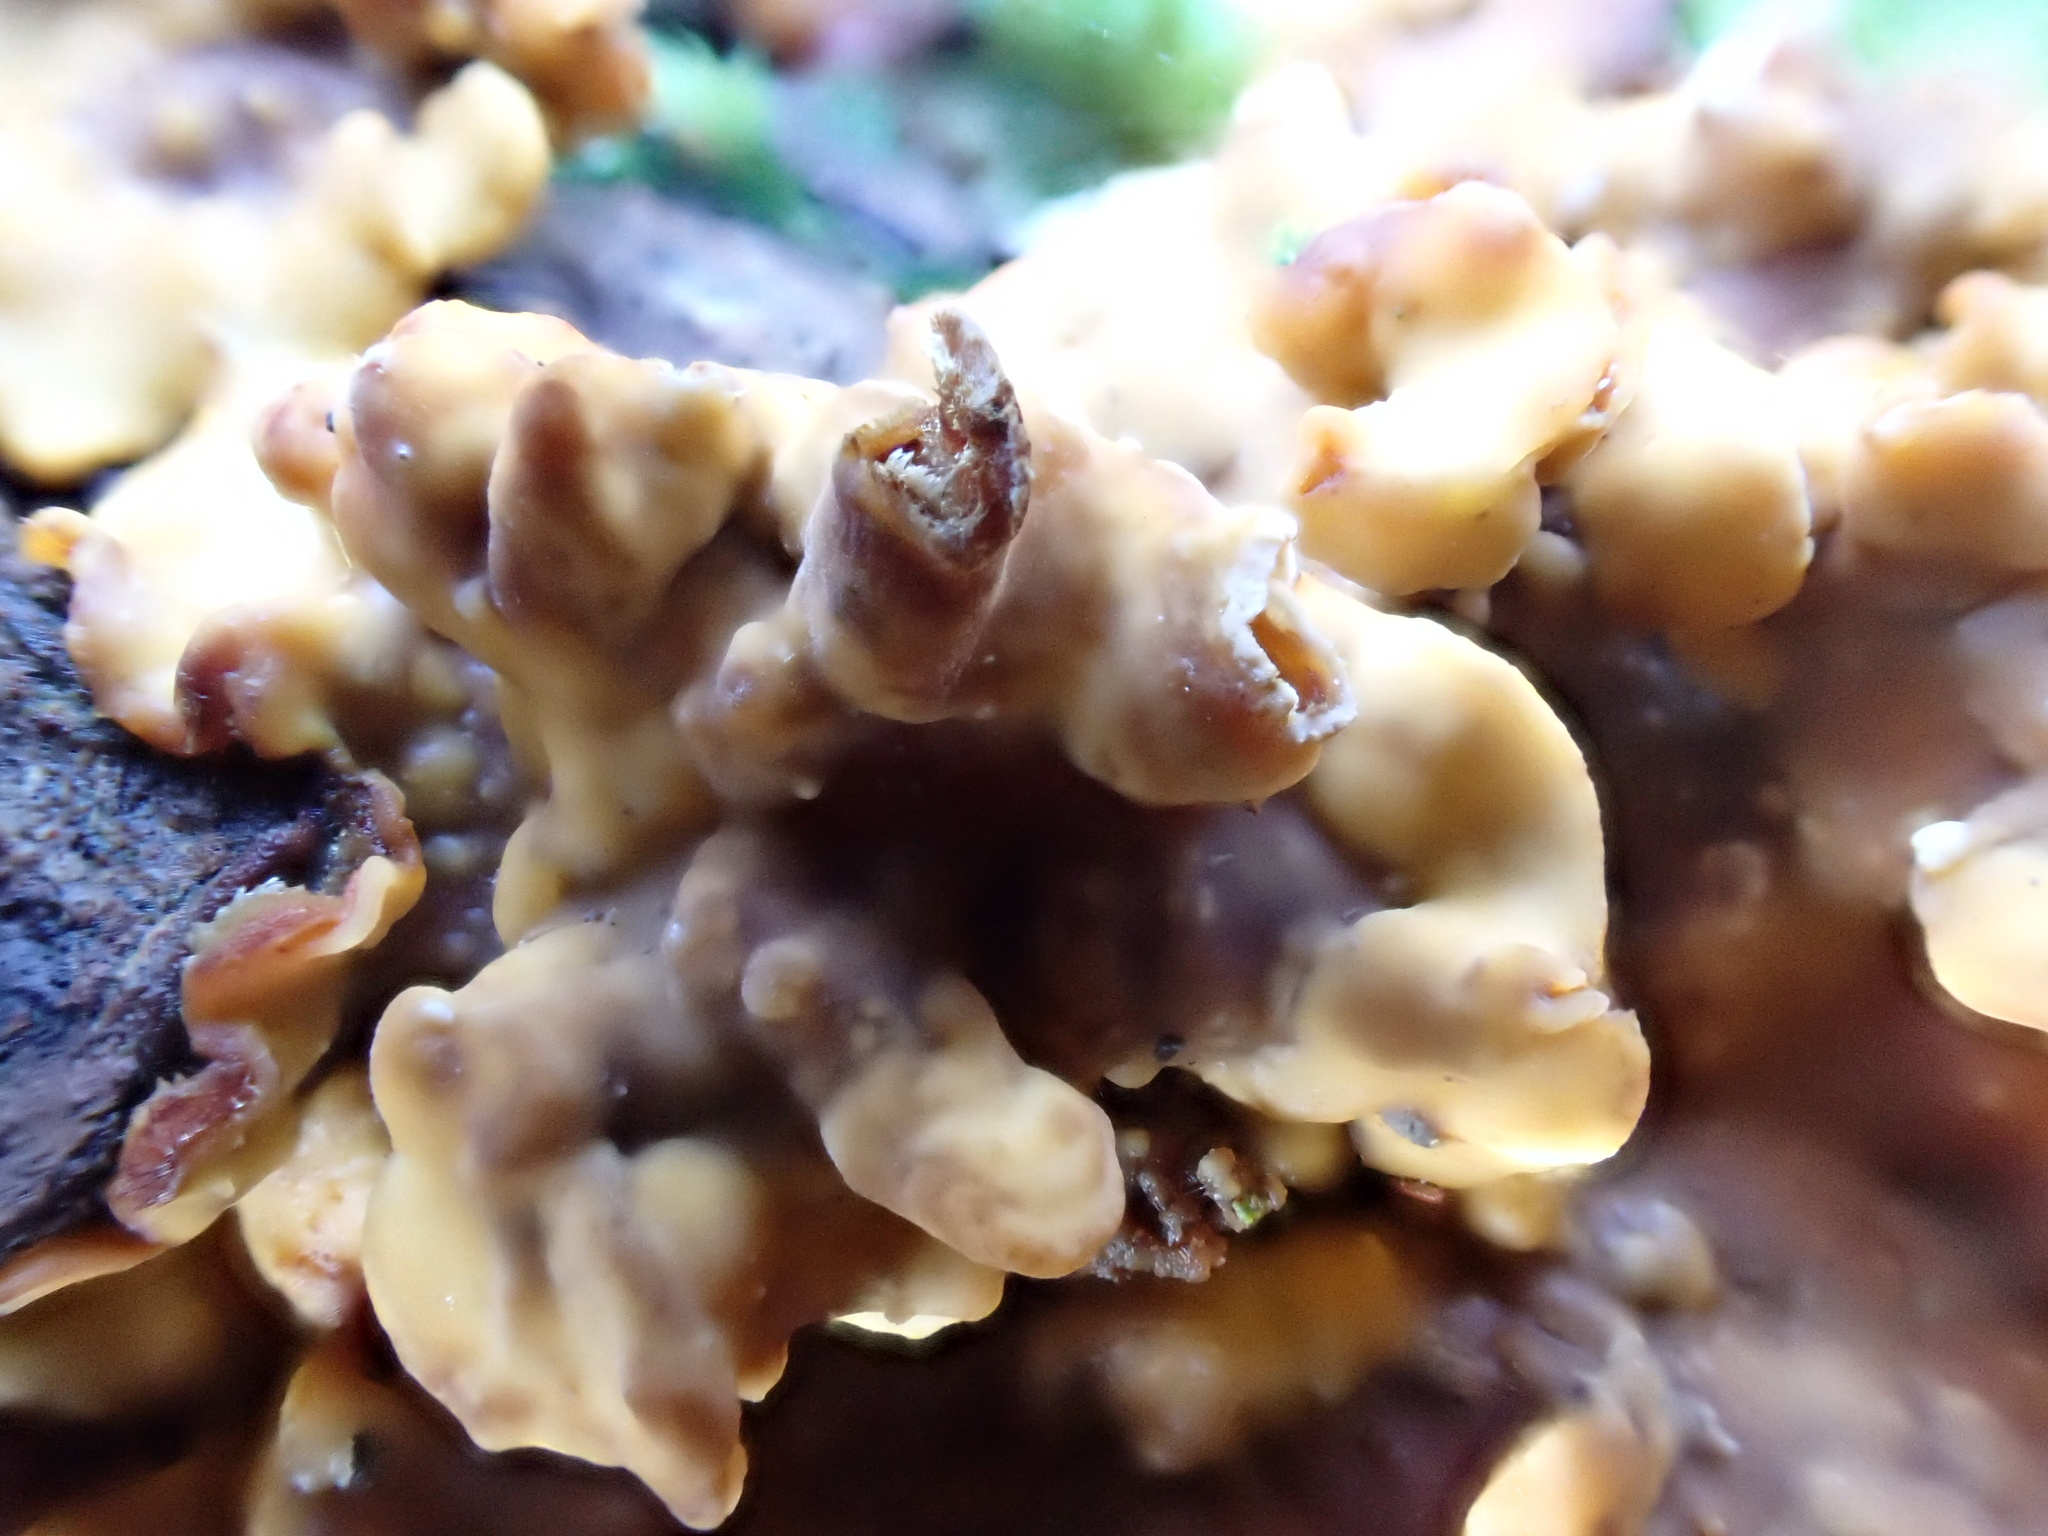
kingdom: Fungi
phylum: Basidiomycota
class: Agaricomycetes
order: Russulales
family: Stereaceae
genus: Stereum
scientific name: Stereum sanguinolentum
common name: Bleeding conifer crust
